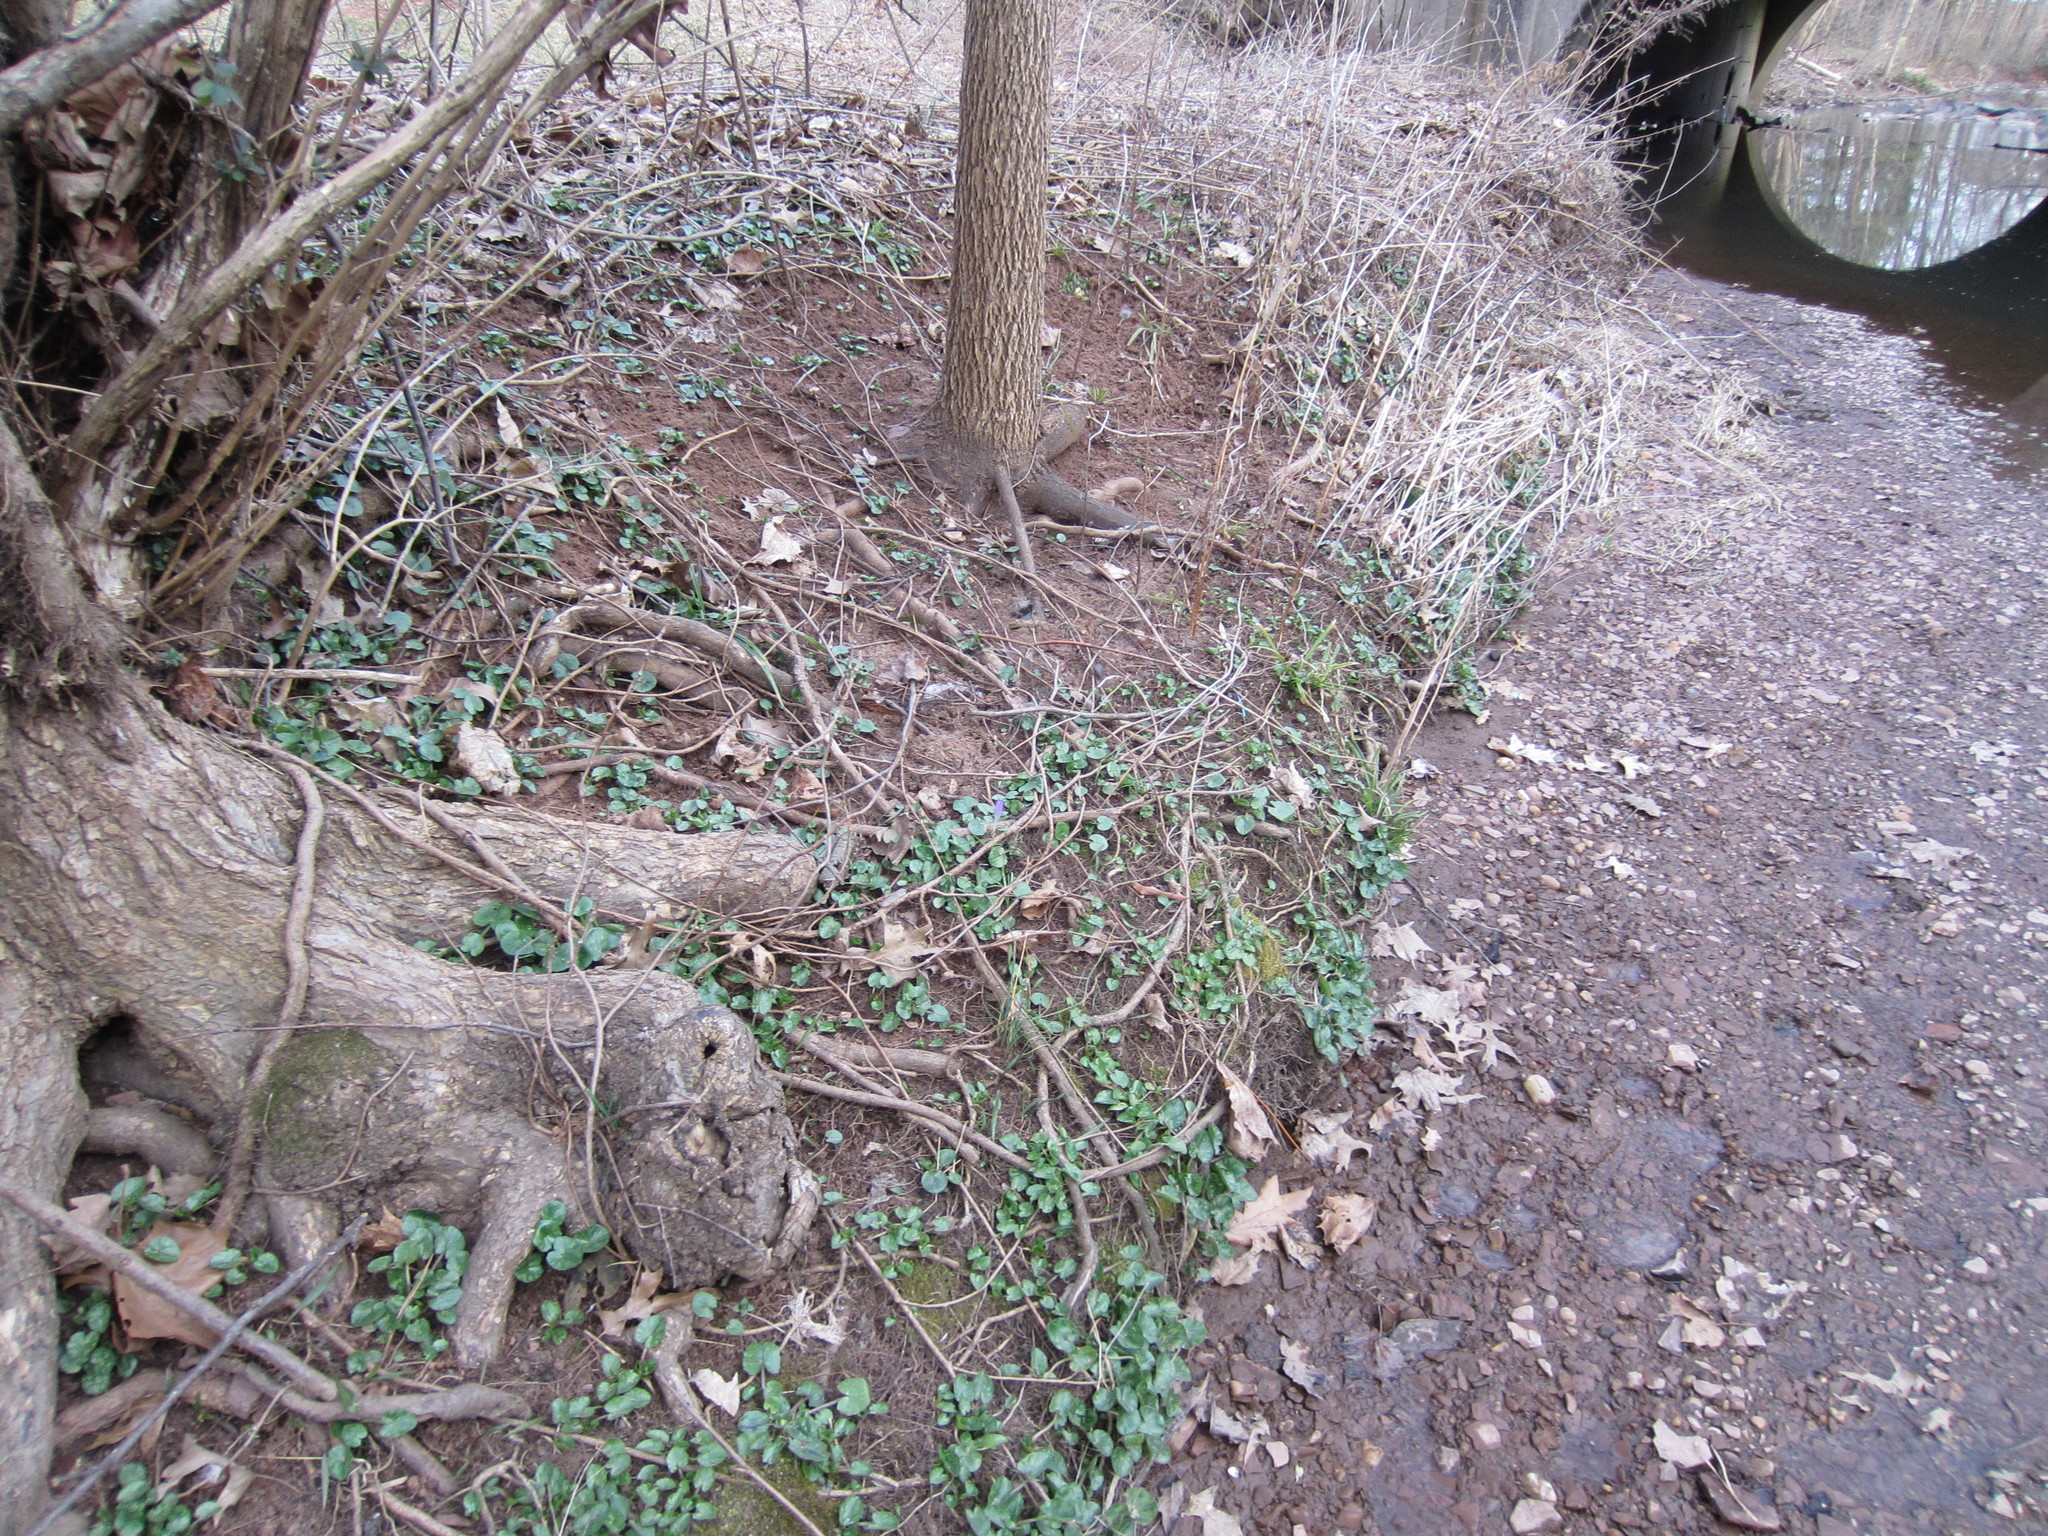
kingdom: Plantae
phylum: Tracheophyta
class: Liliopsida
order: Asparagales
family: Iridaceae
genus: Crocus
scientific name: Crocus tommasinianus
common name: Early crocus
